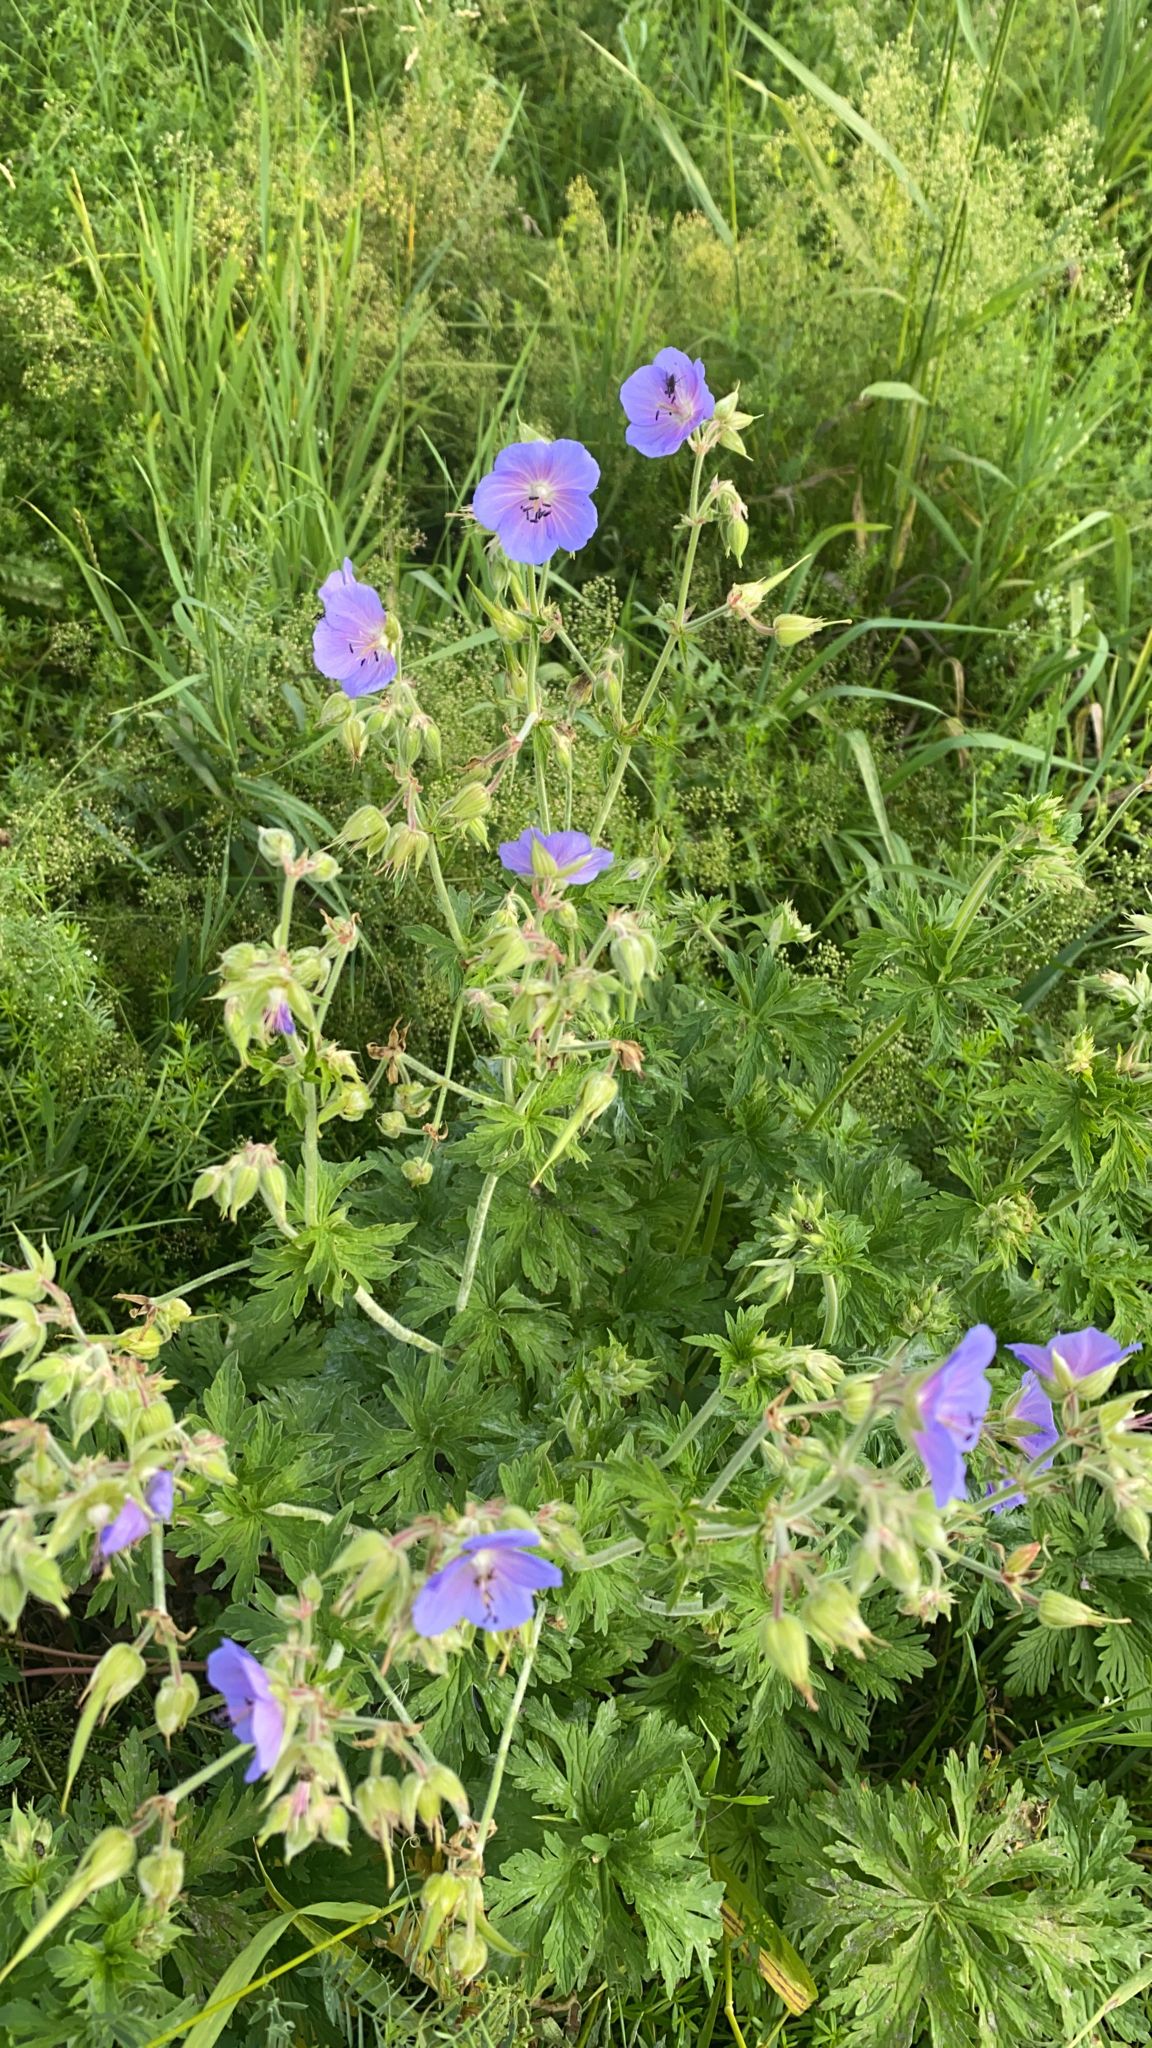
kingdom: Plantae
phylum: Tracheophyta
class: Magnoliopsida
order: Geraniales
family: Geraniaceae
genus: Geranium
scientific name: Geranium pratense
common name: Meadow crane's-bill
